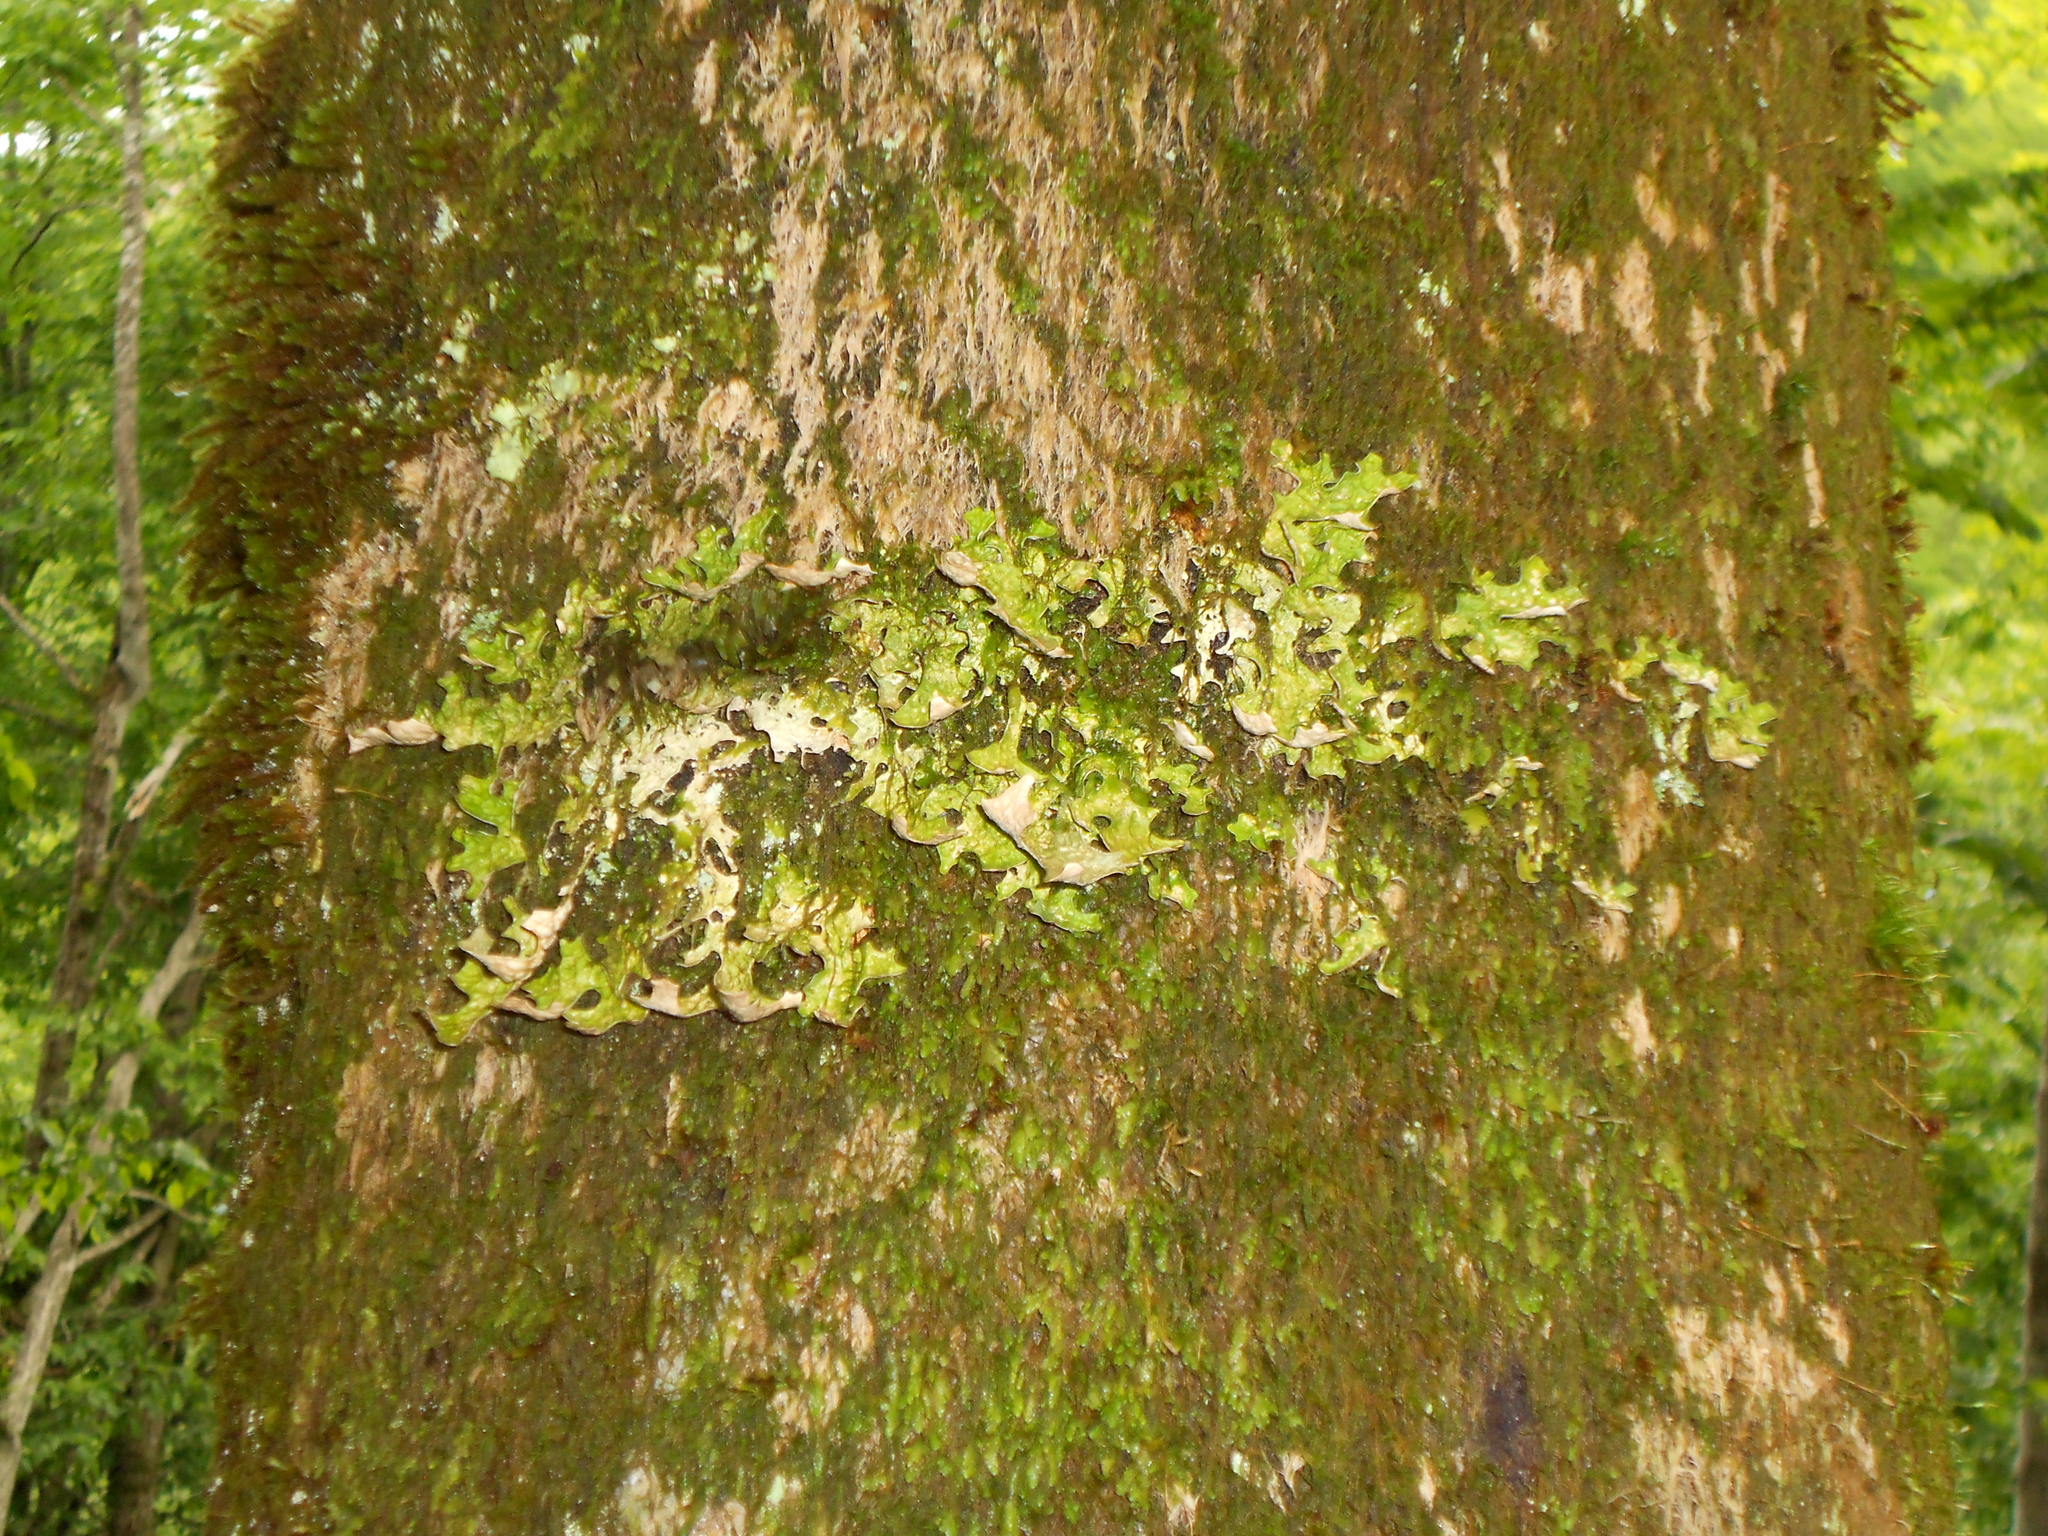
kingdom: Fungi
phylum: Ascomycota
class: Lecanoromycetes
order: Peltigerales
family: Lobariaceae
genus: Lobaria
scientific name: Lobaria pulmonaria
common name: Lungwort
